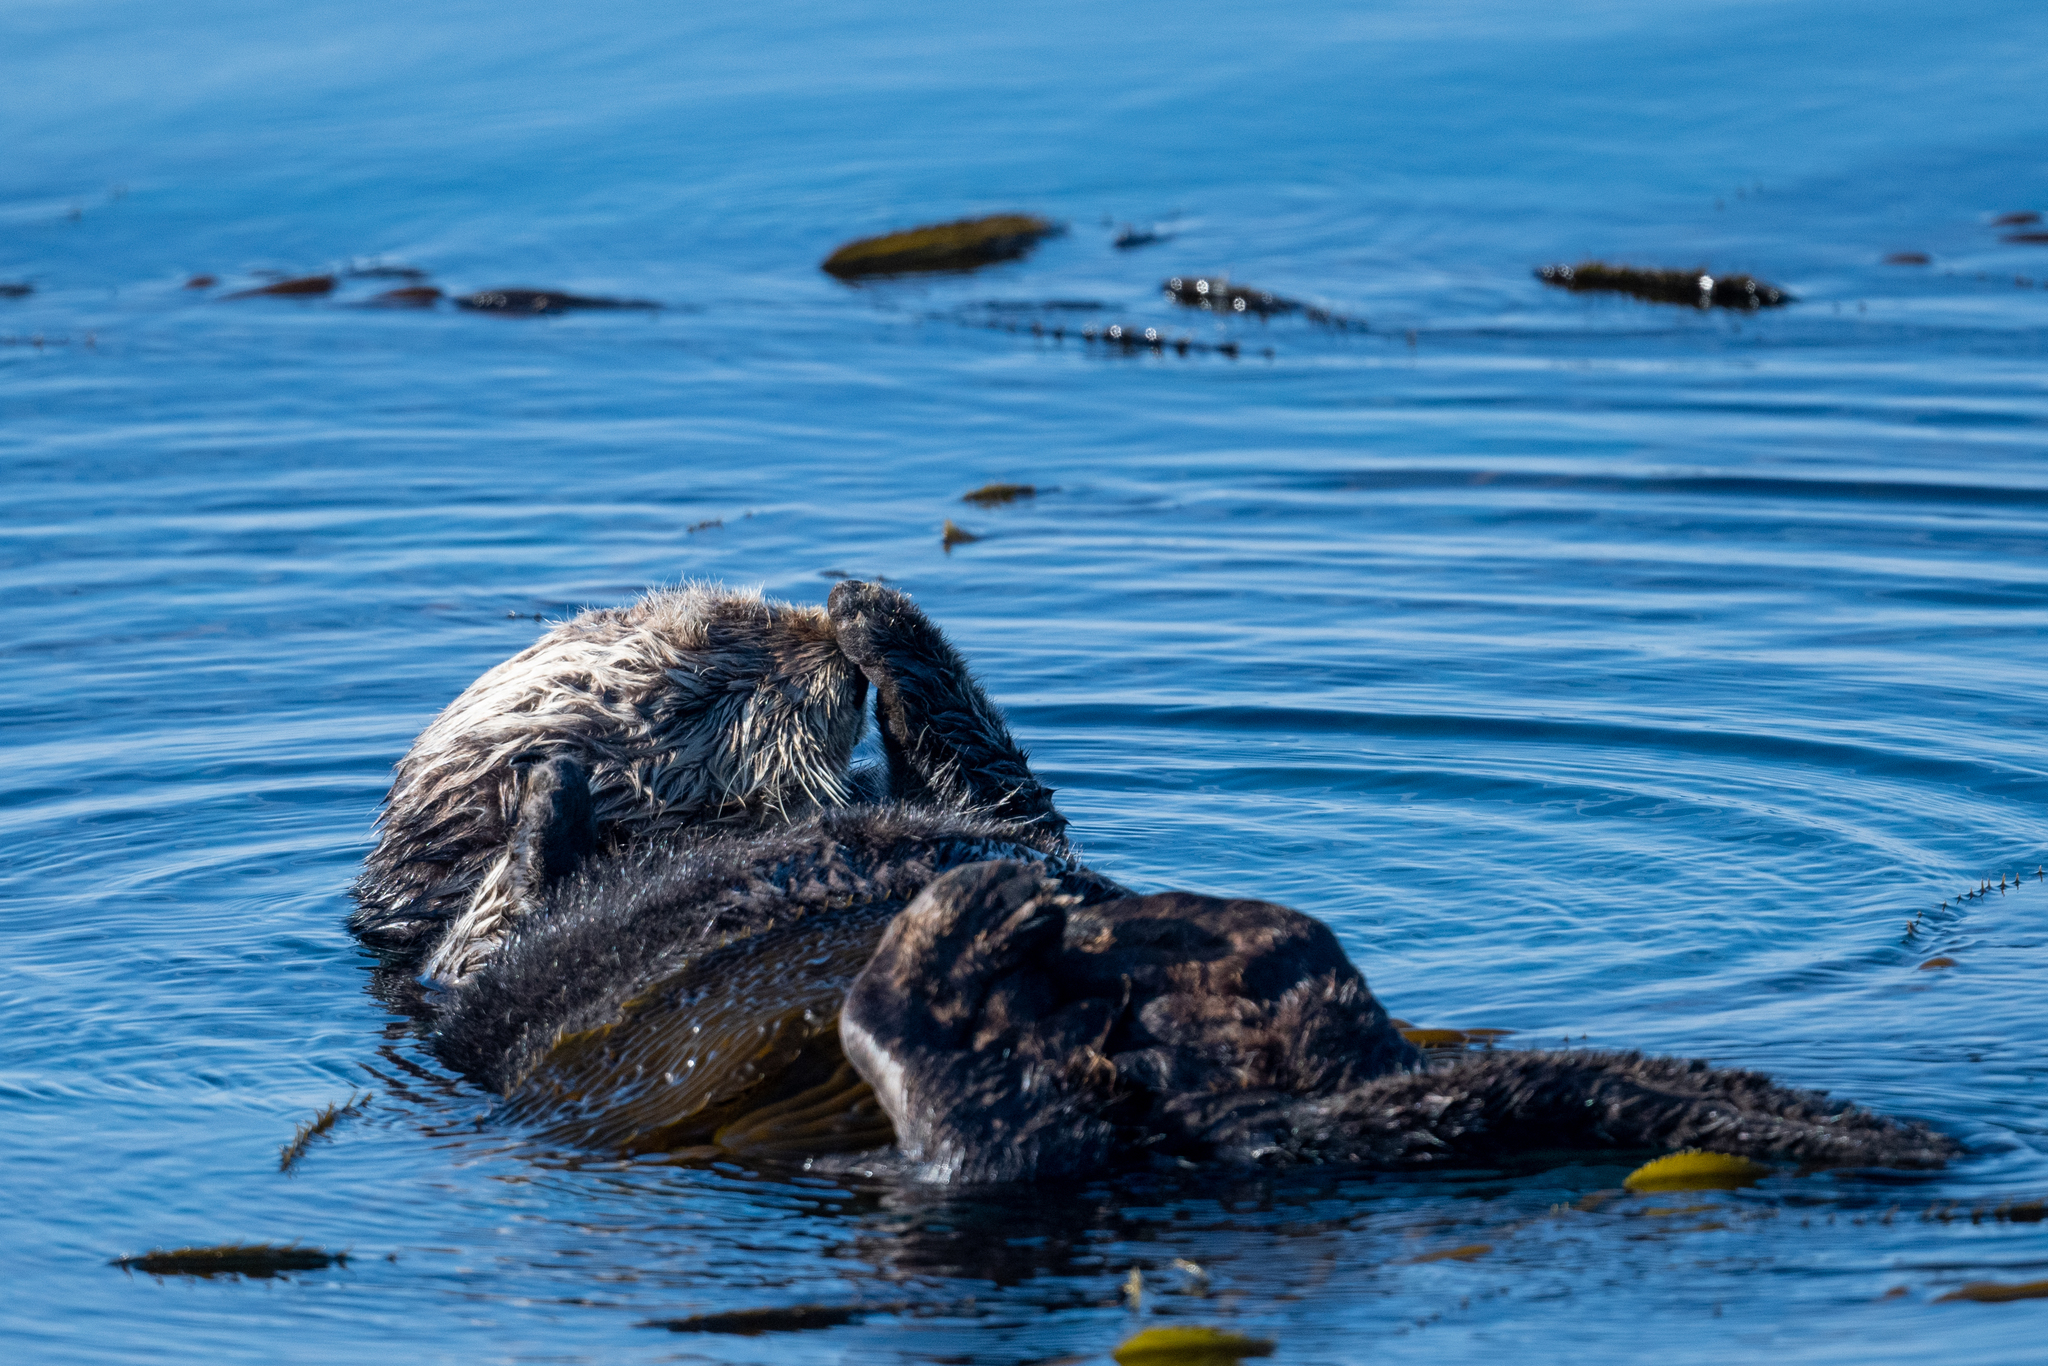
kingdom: Animalia
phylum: Chordata
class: Mammalia
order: Carnivora
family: Mustelidae
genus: Enhydra
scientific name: Enhydra lutris
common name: Sea otter
